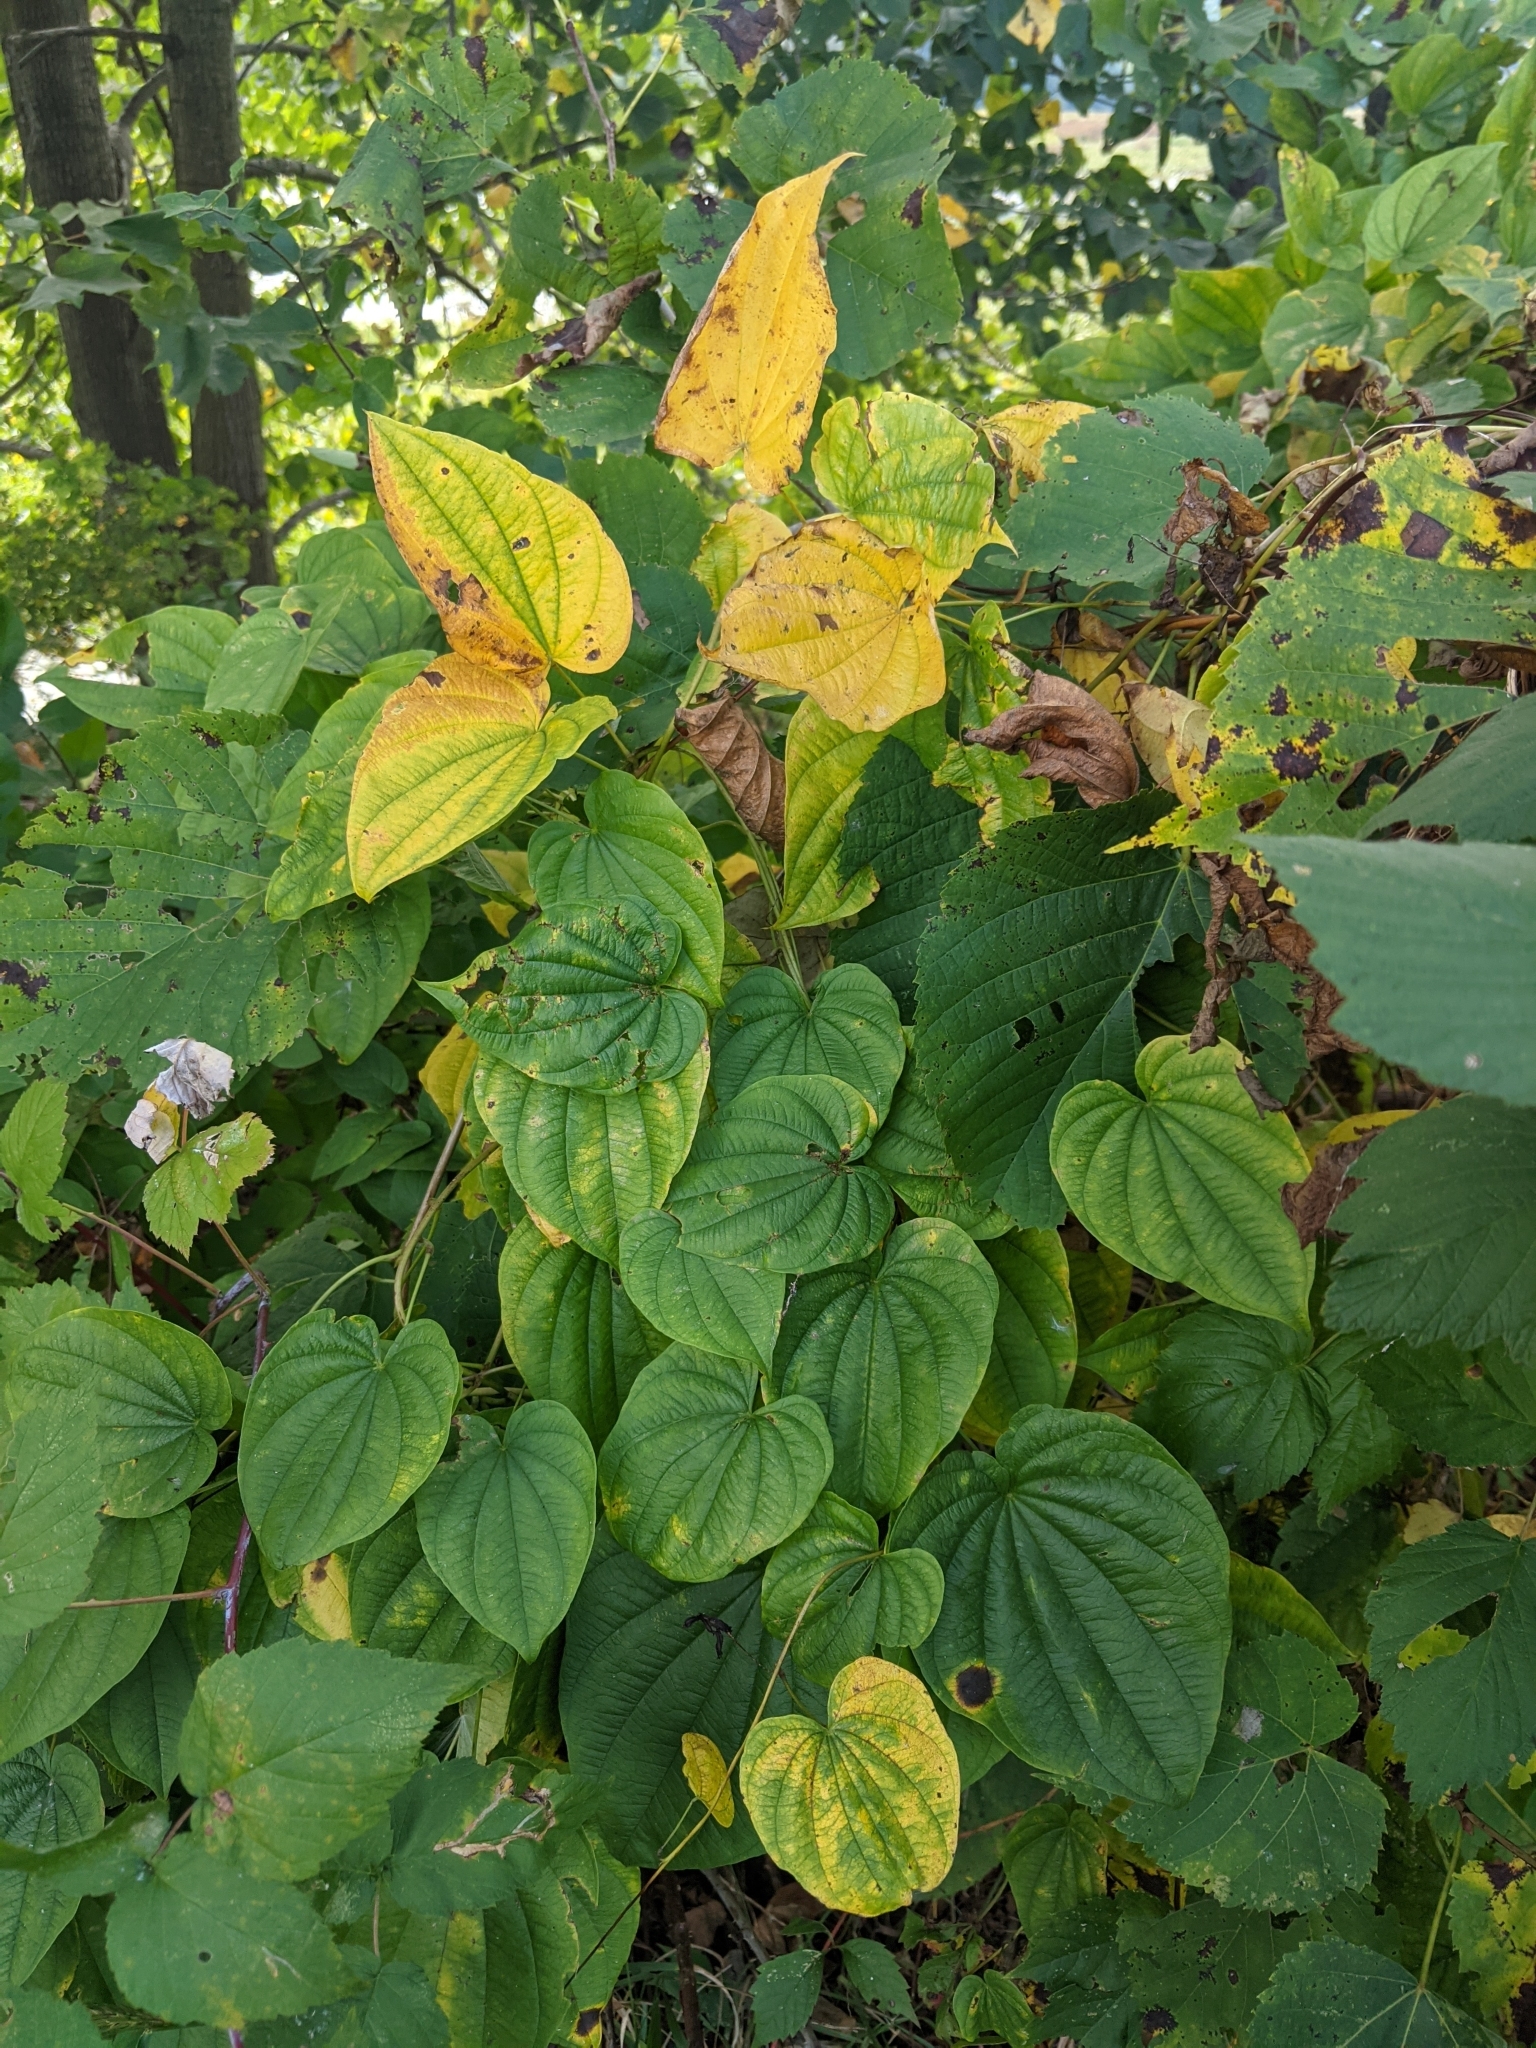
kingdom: Plantae
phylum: Tracheophyta
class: Liliopsida
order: Dioscoreales
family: Dioscoreaceae
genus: Dioscorea
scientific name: Dioscorea villosa
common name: Wild yam
